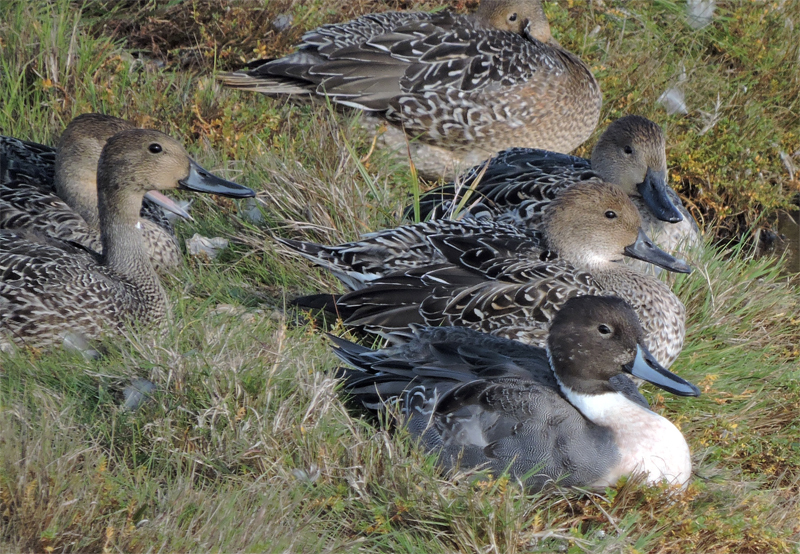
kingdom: Animalia
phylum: Chordata
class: Aves
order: Anseriformes
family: Anatidae
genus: Anas
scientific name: Anas acuta
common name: Northern pintail
